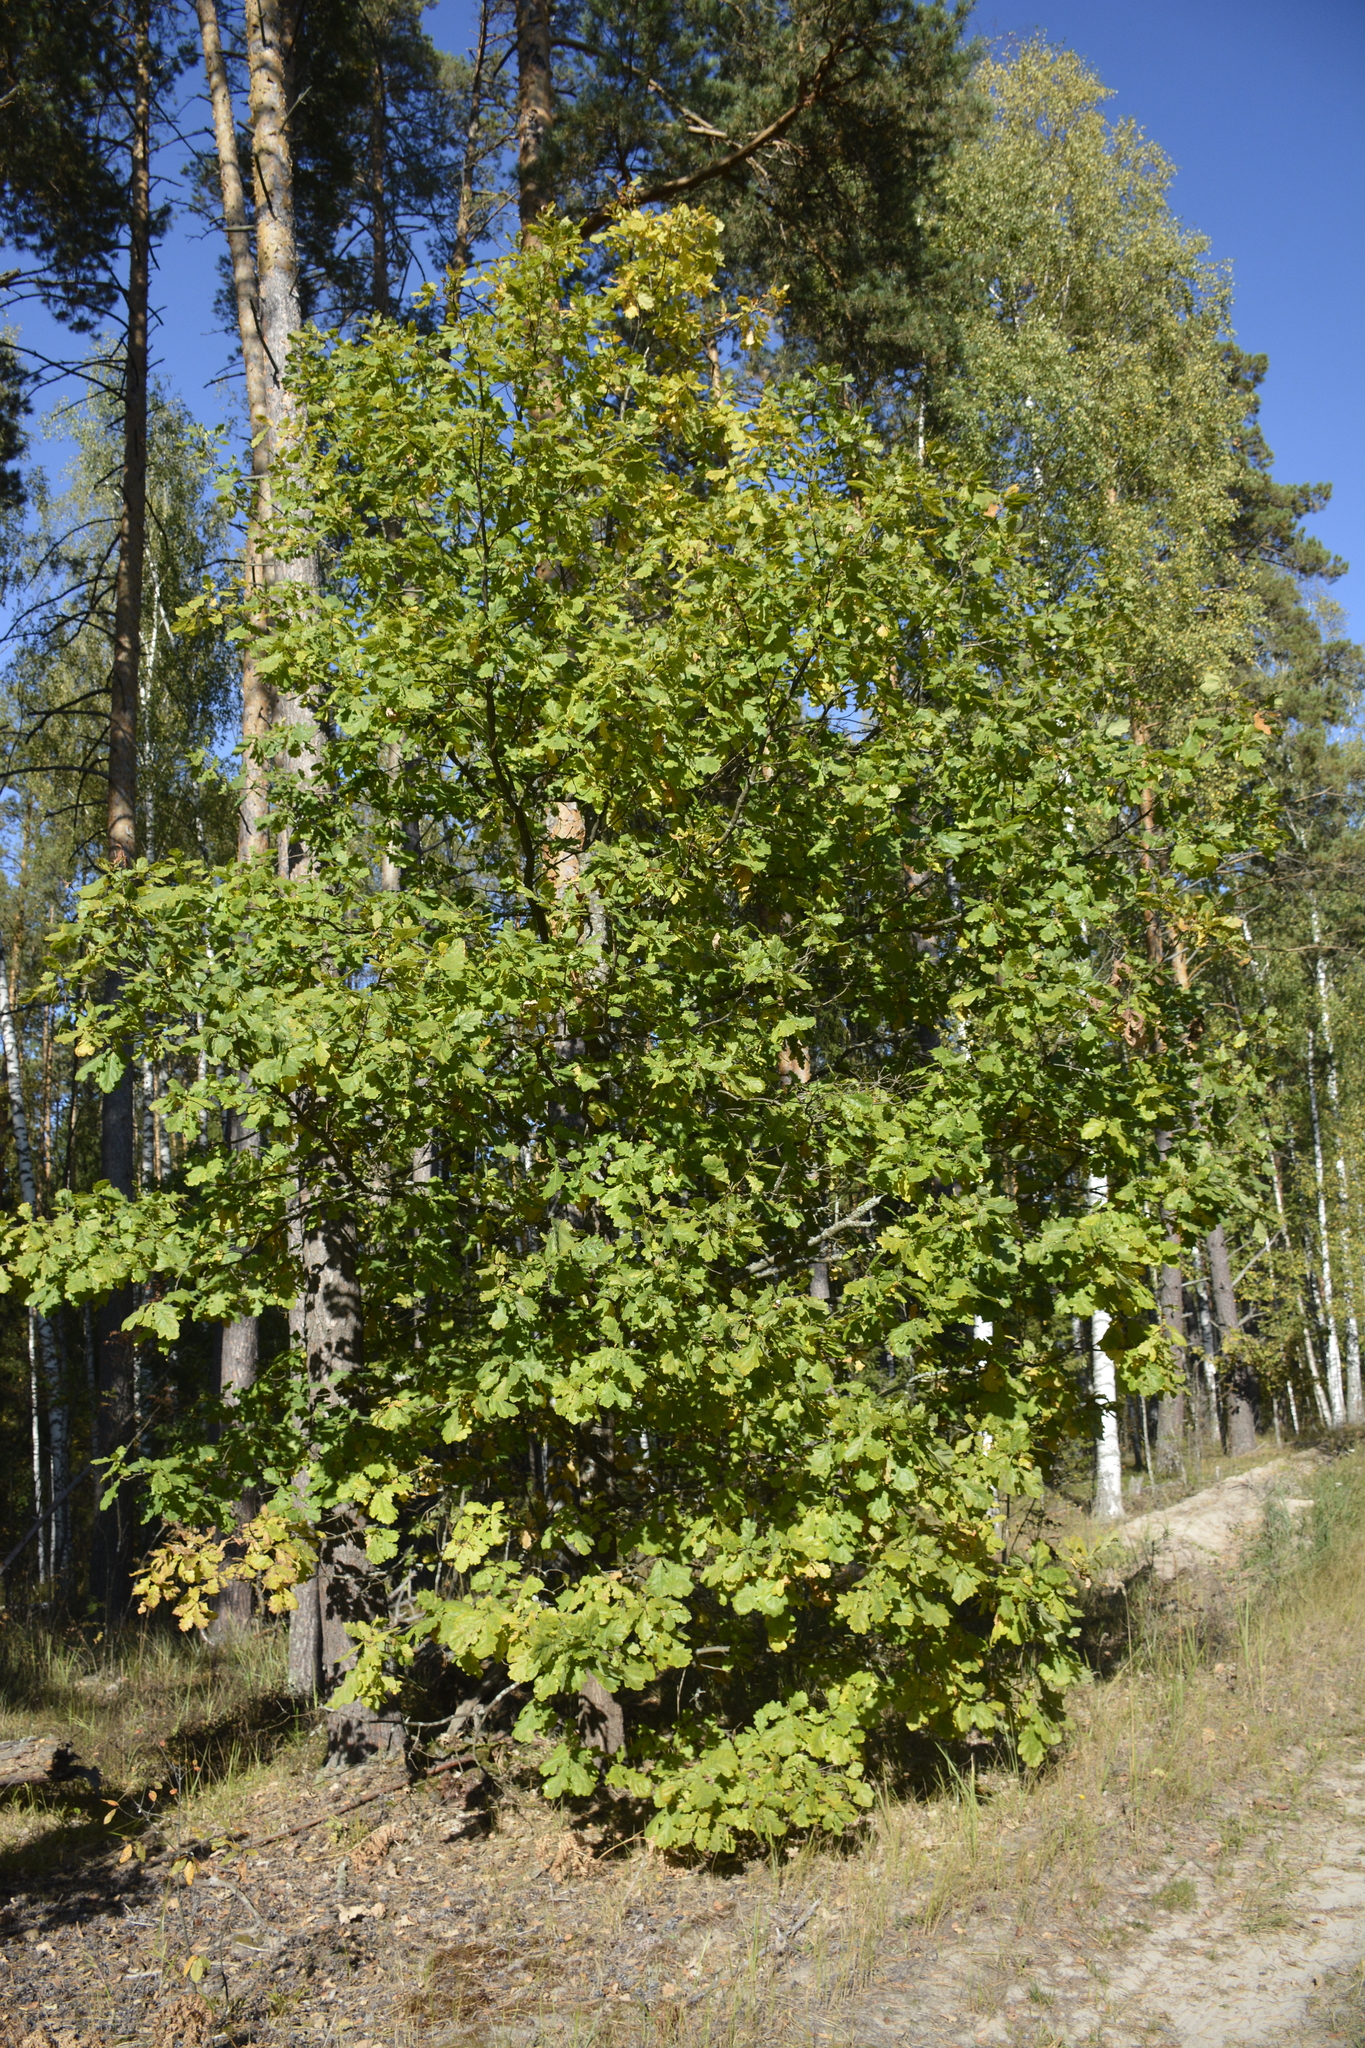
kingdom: Plantae
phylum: Tracheophyta
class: Magnoliopsida
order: Fagales
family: Fagaceae
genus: Quercus
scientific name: Quercus robur
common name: Pedunculate oak
